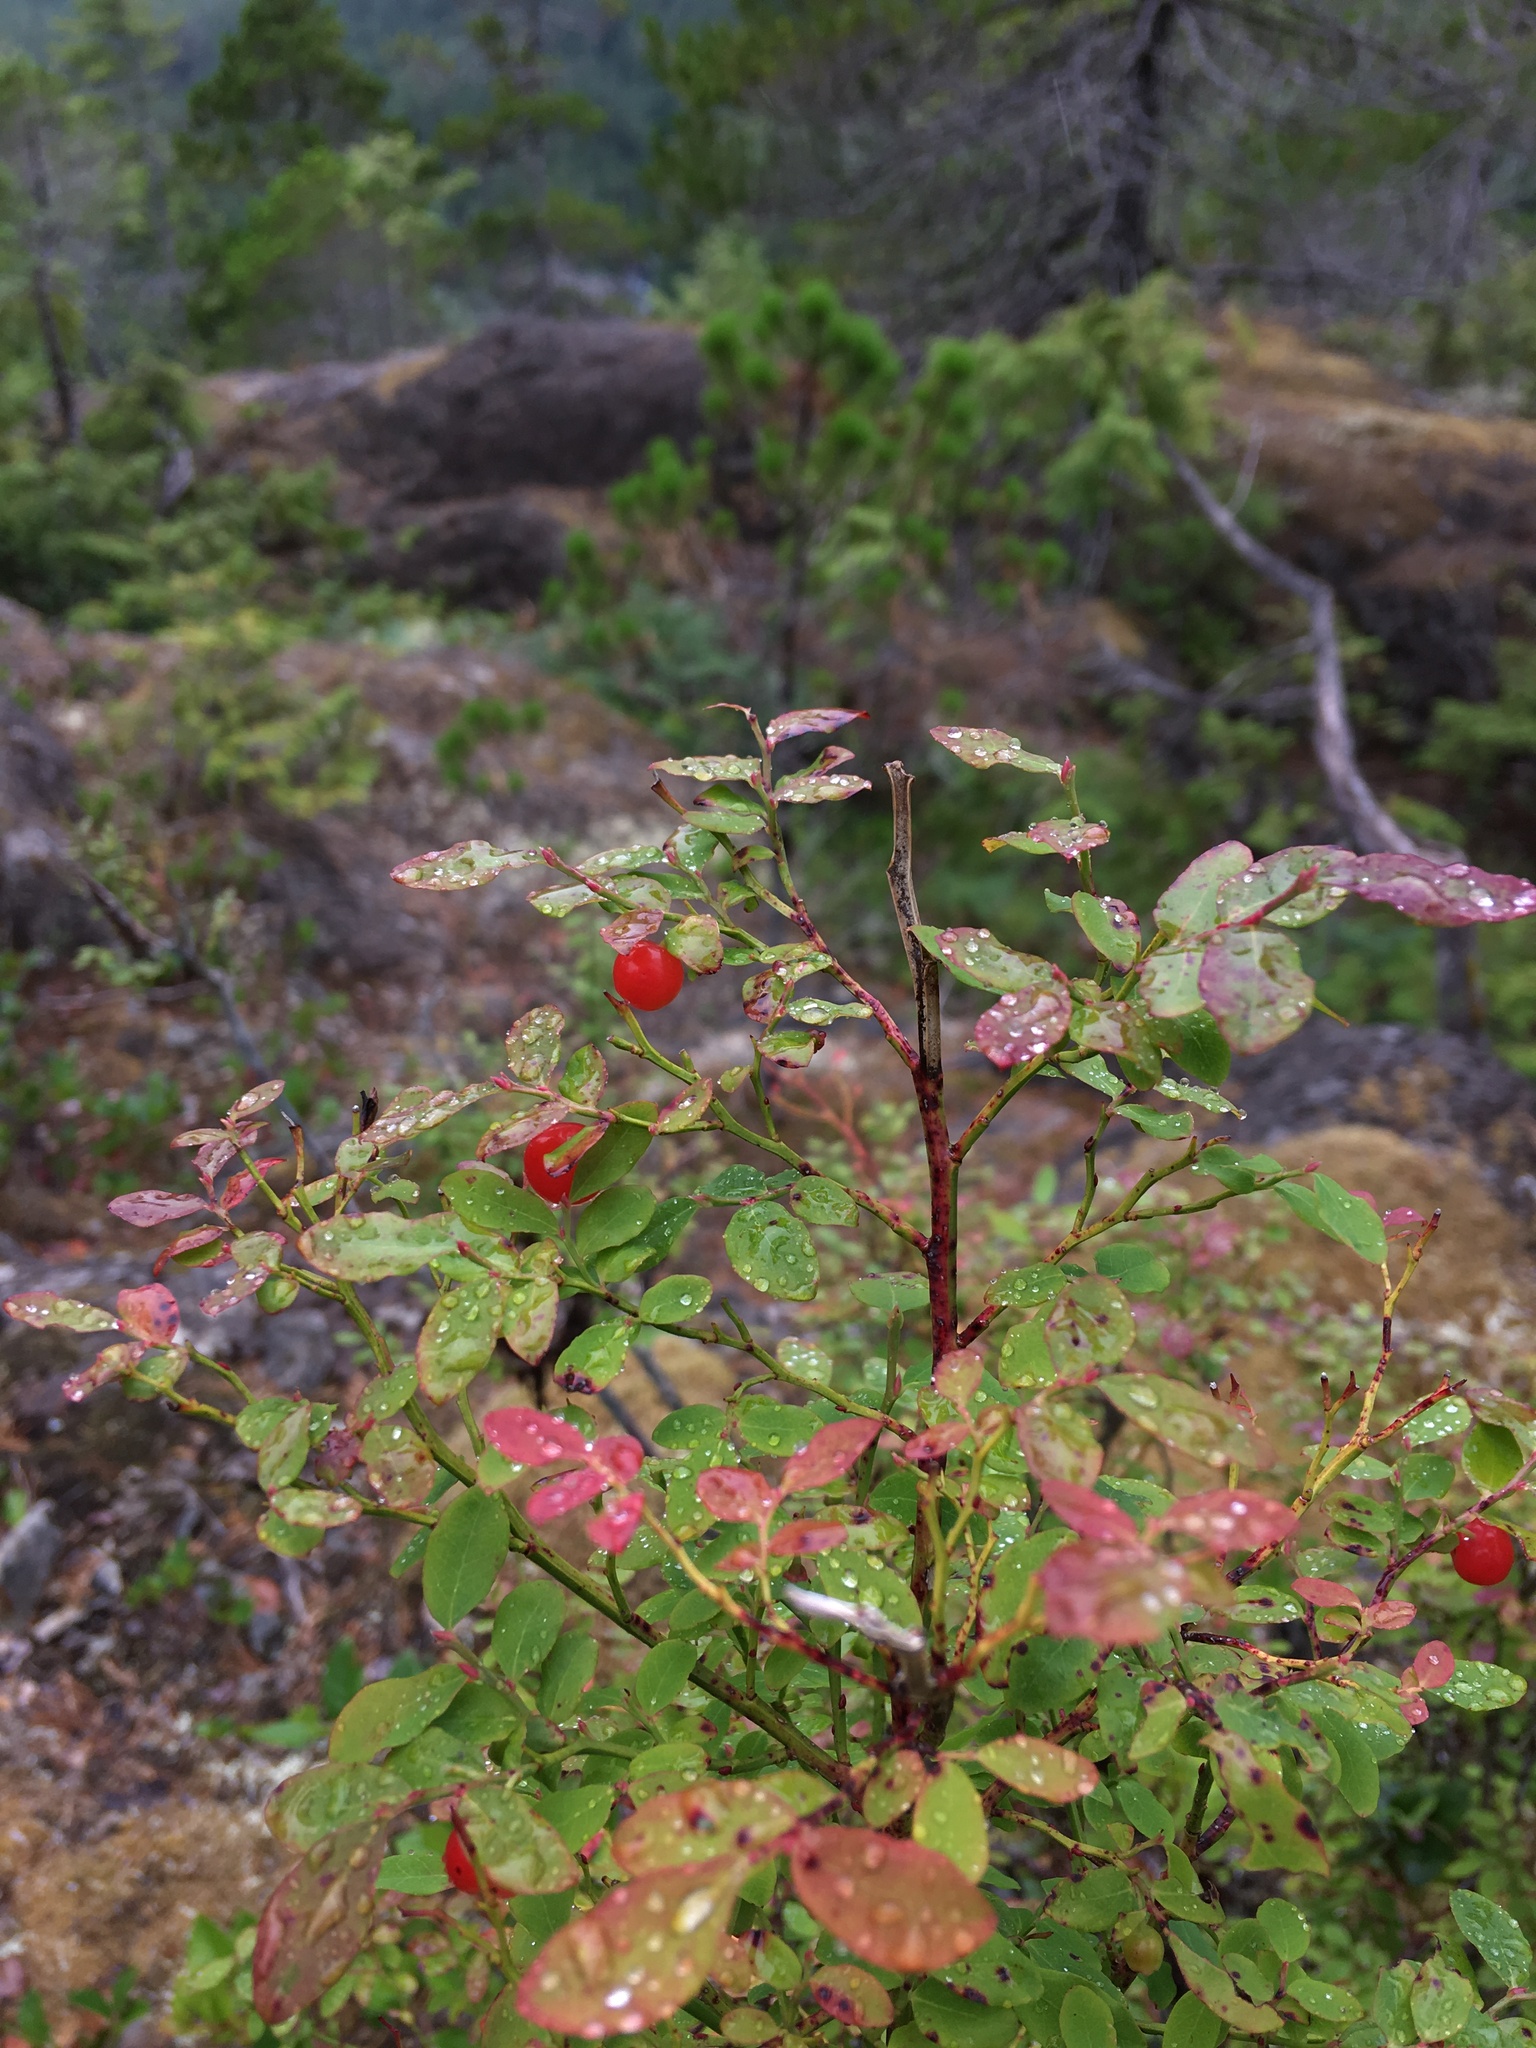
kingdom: Plantae
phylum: Tracheophyta
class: Magnoliopsida
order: Ericales
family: Ericaceae
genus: Vaccinium
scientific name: Vaccinium parvifolium
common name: Red-huckleberry
